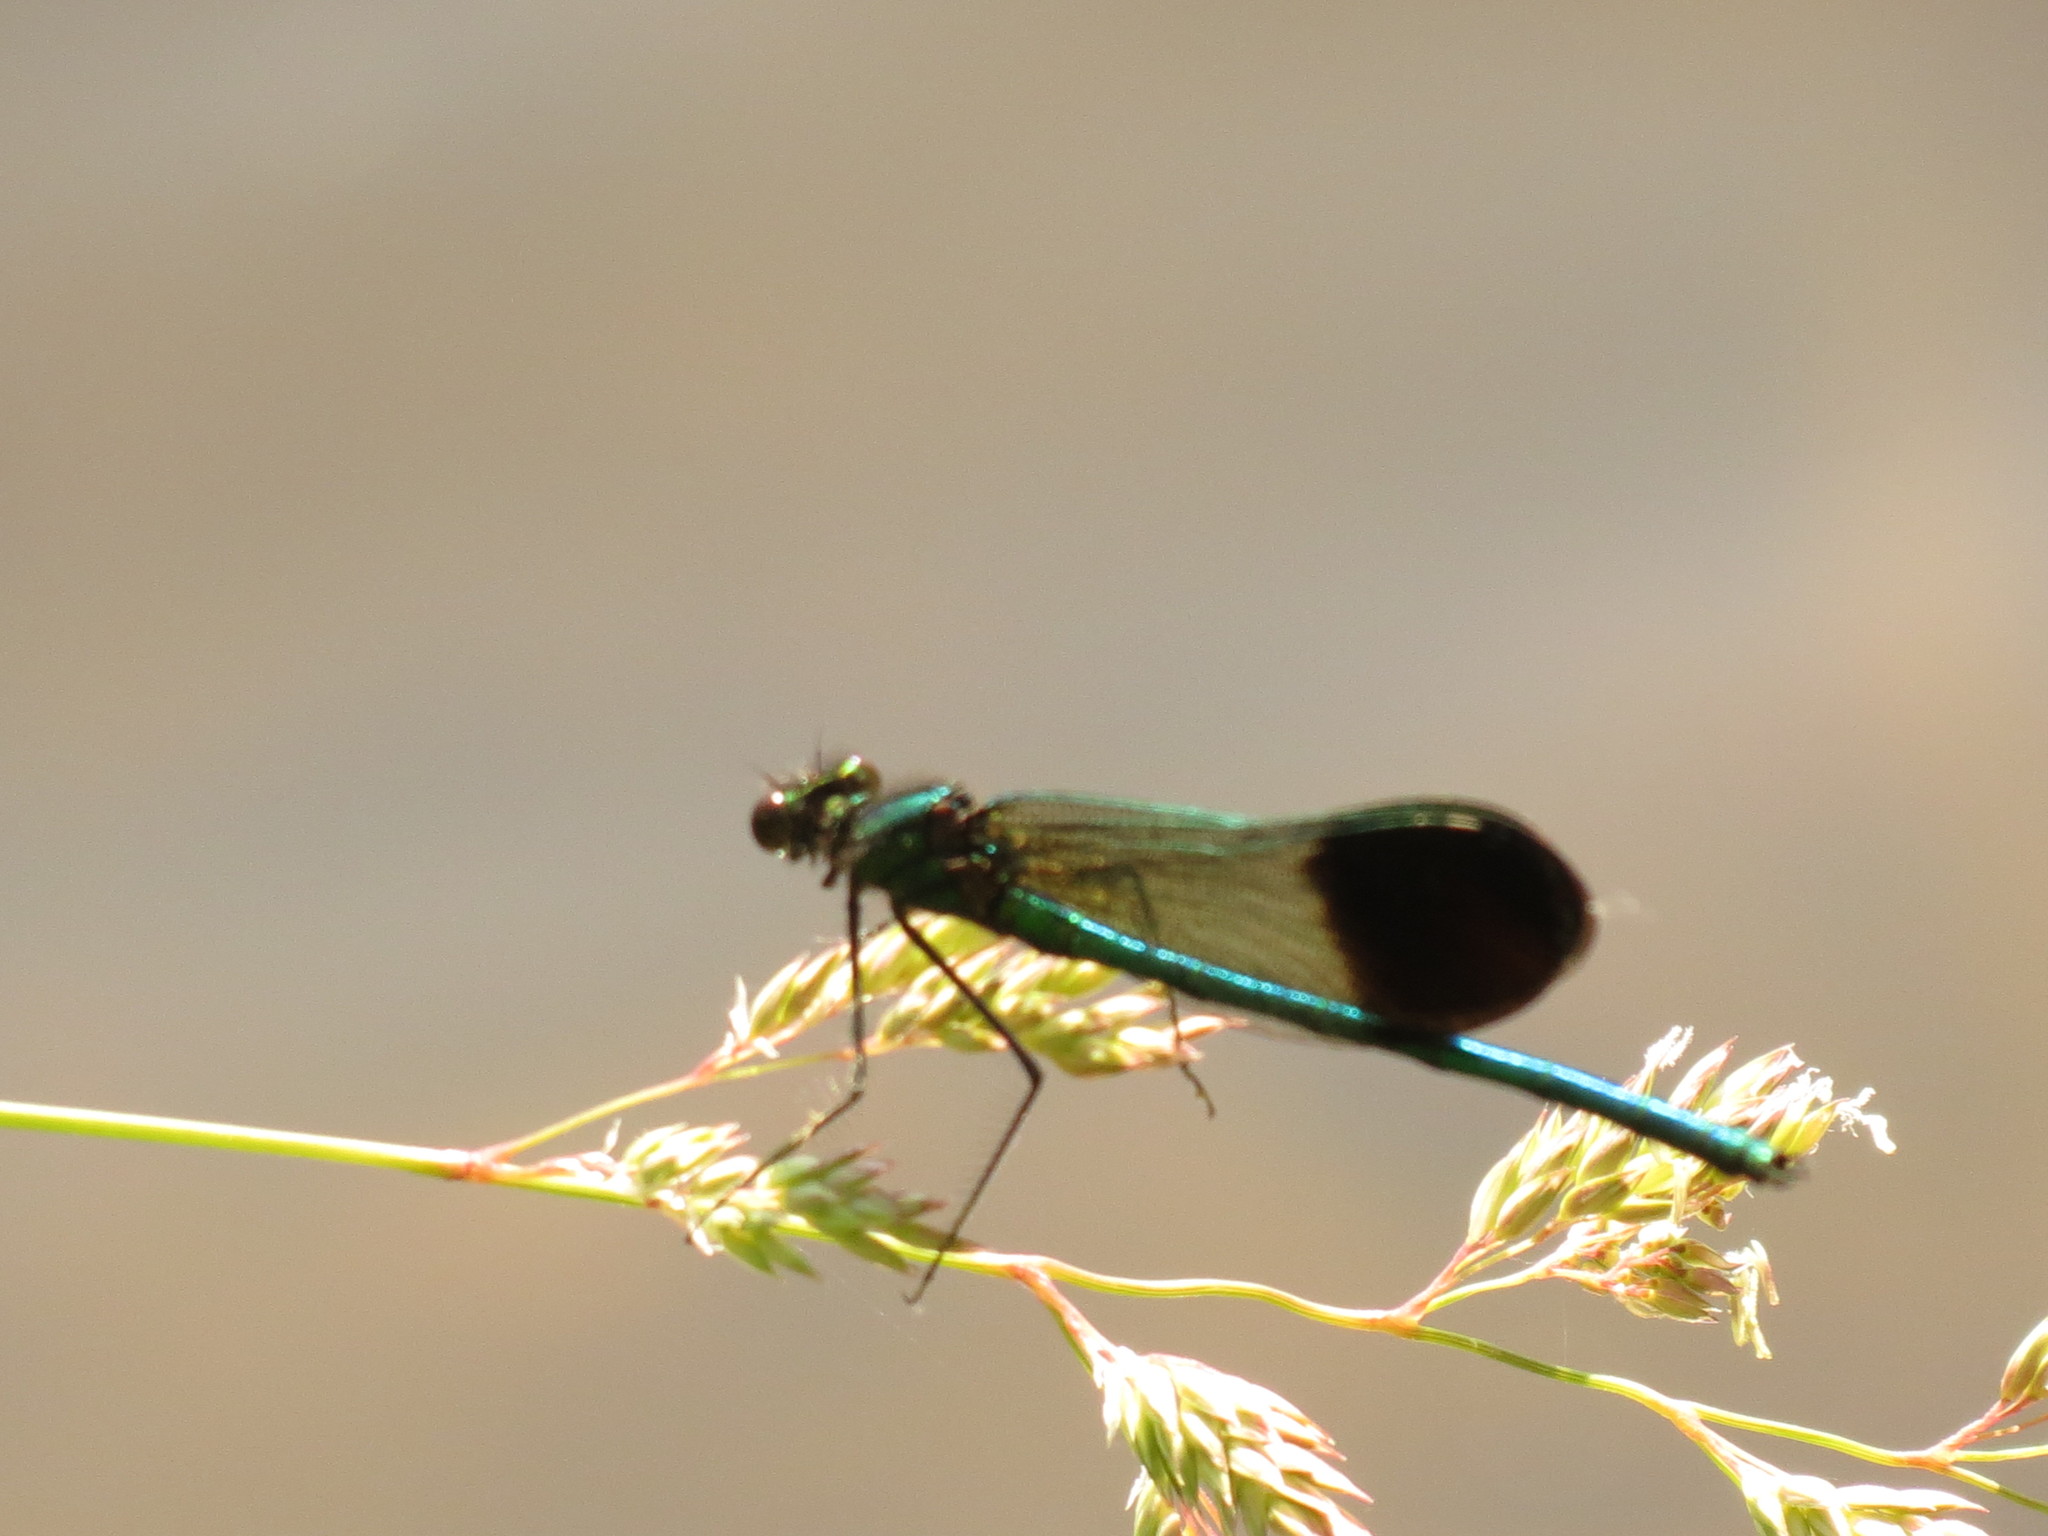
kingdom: Animalia
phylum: Arthropoda
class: Insecta
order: Odonata
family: Calopterygidae
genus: Calopteryx
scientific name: Calopteryx aequabilis
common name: River jewelwing
